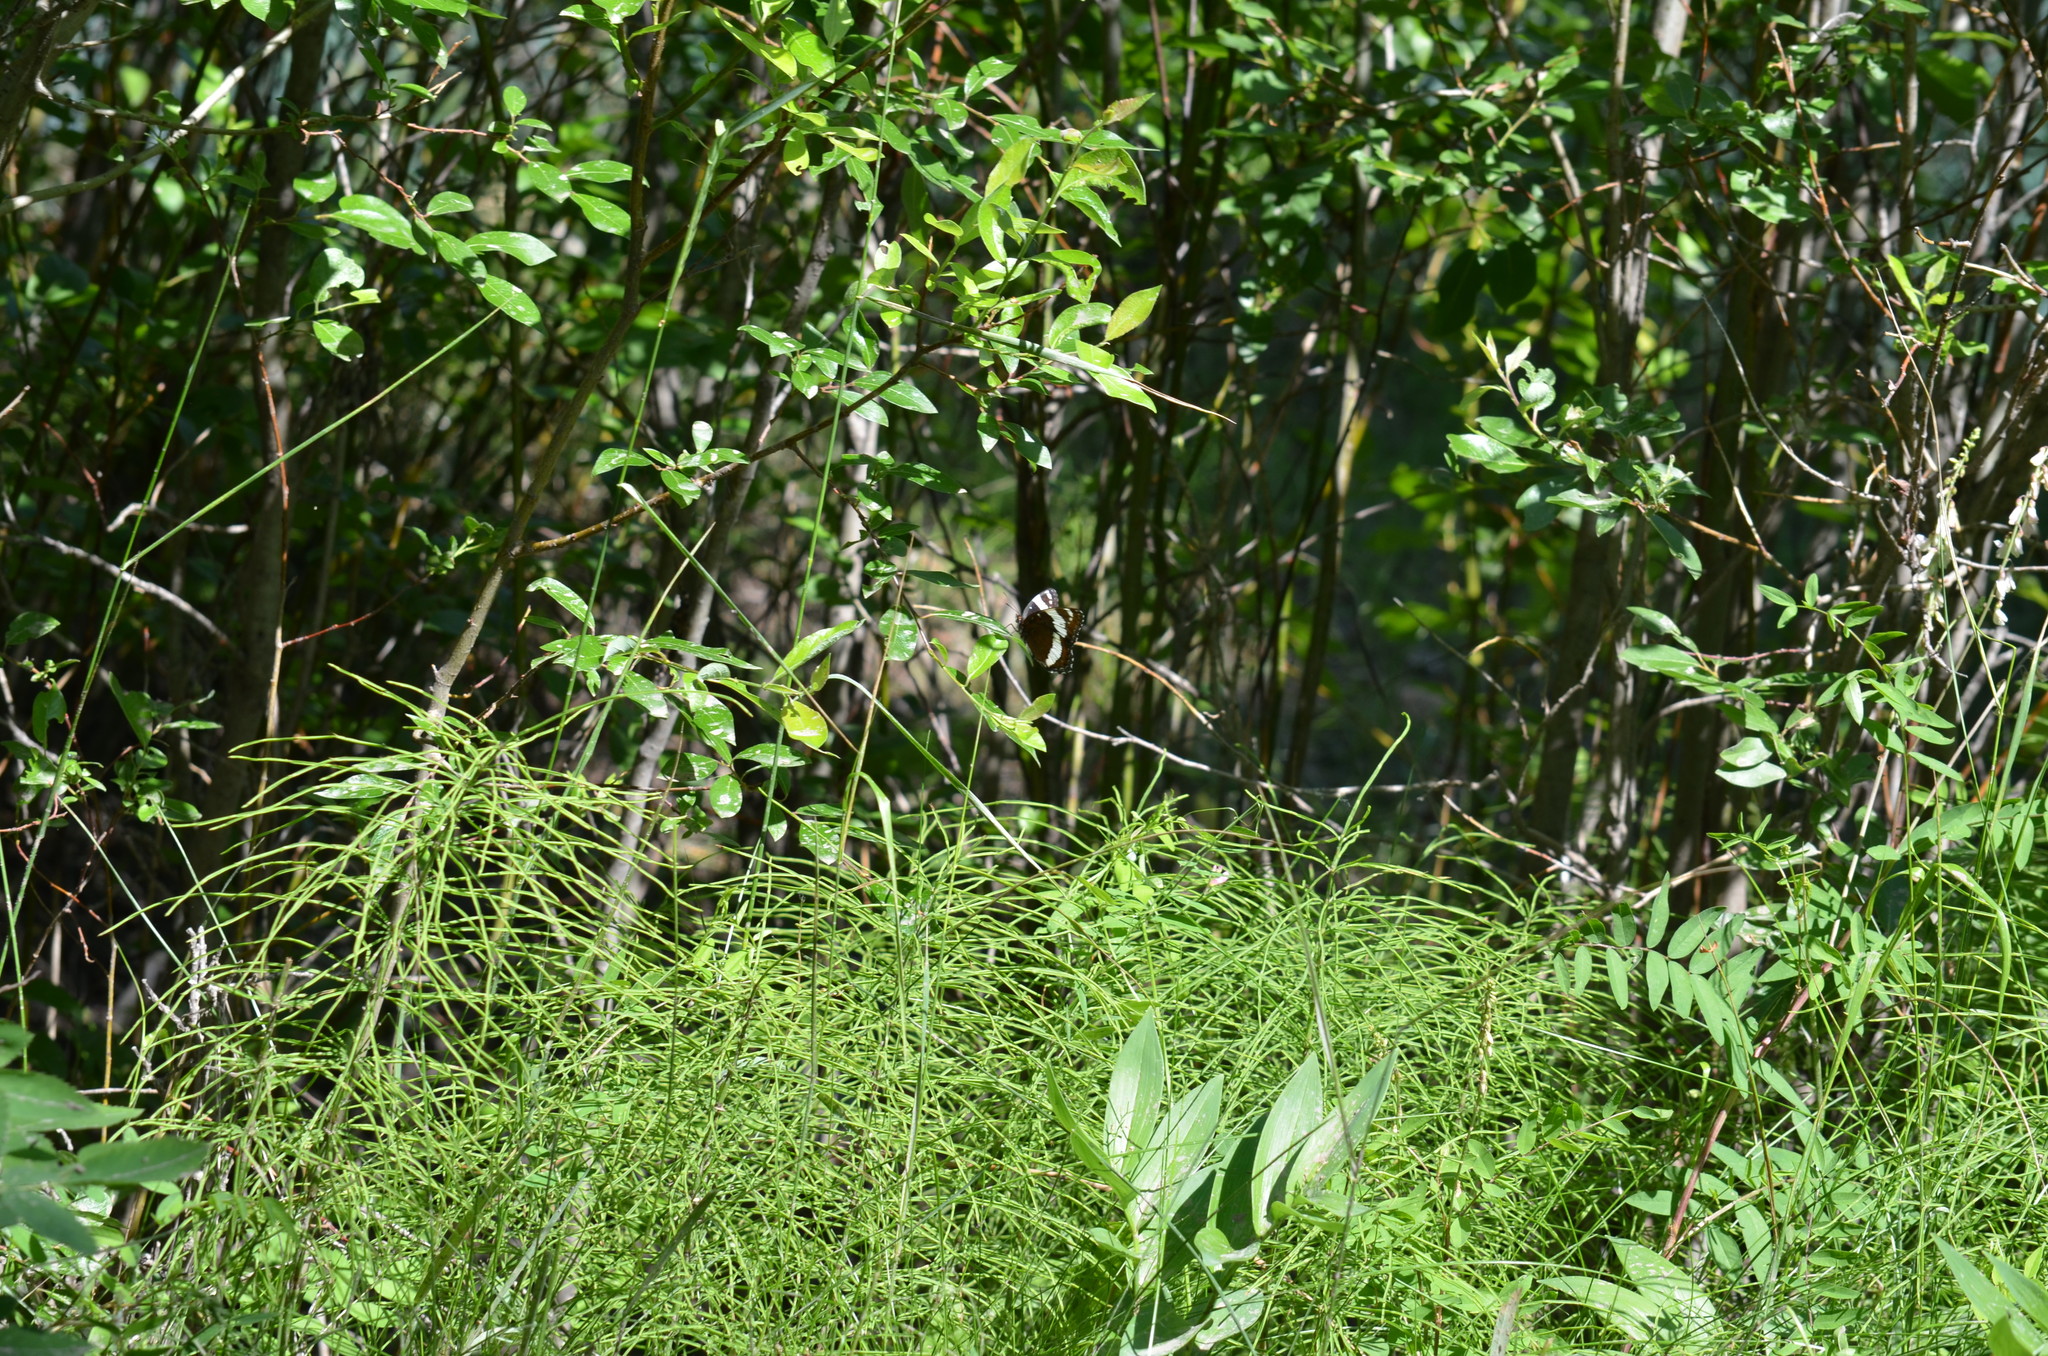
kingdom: Animalia
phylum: Arthropoda
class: Insecta
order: Lepidoptera
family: Nymphalidae
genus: Limenitis
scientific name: Limenitis arthemis
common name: Red-spotted admiral
